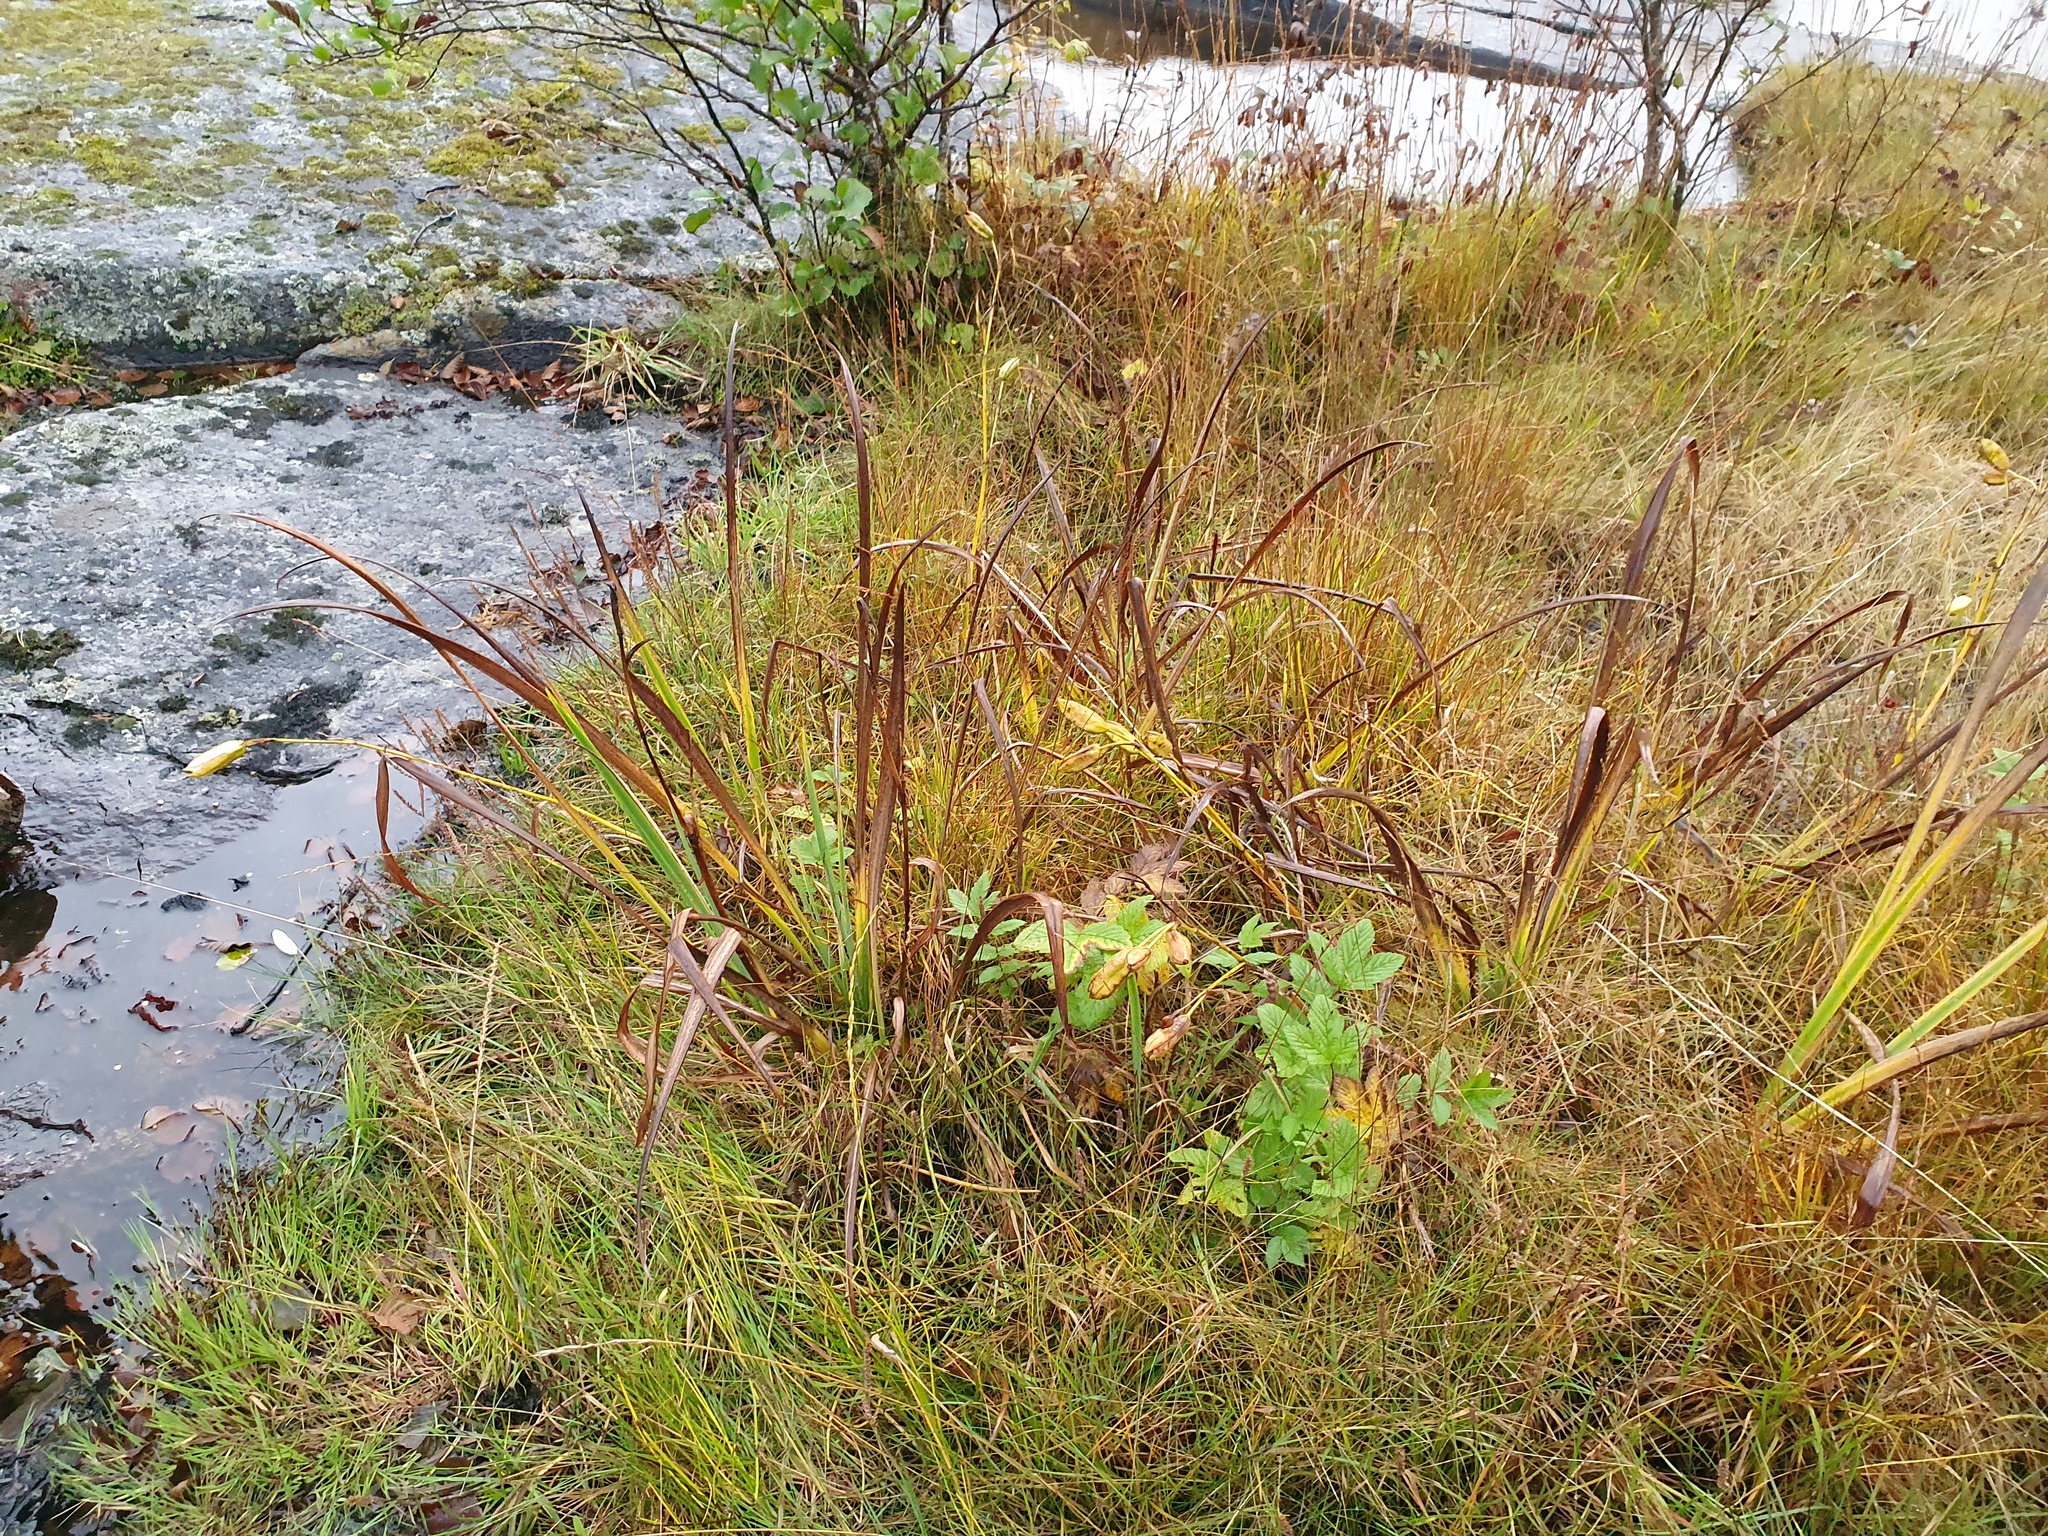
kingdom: Plantae
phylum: Tracheophyta
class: Liliopsida
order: Asparagales
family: Iridaceae
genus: Iris
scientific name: Iris pseudacorus
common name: Yellow flag
